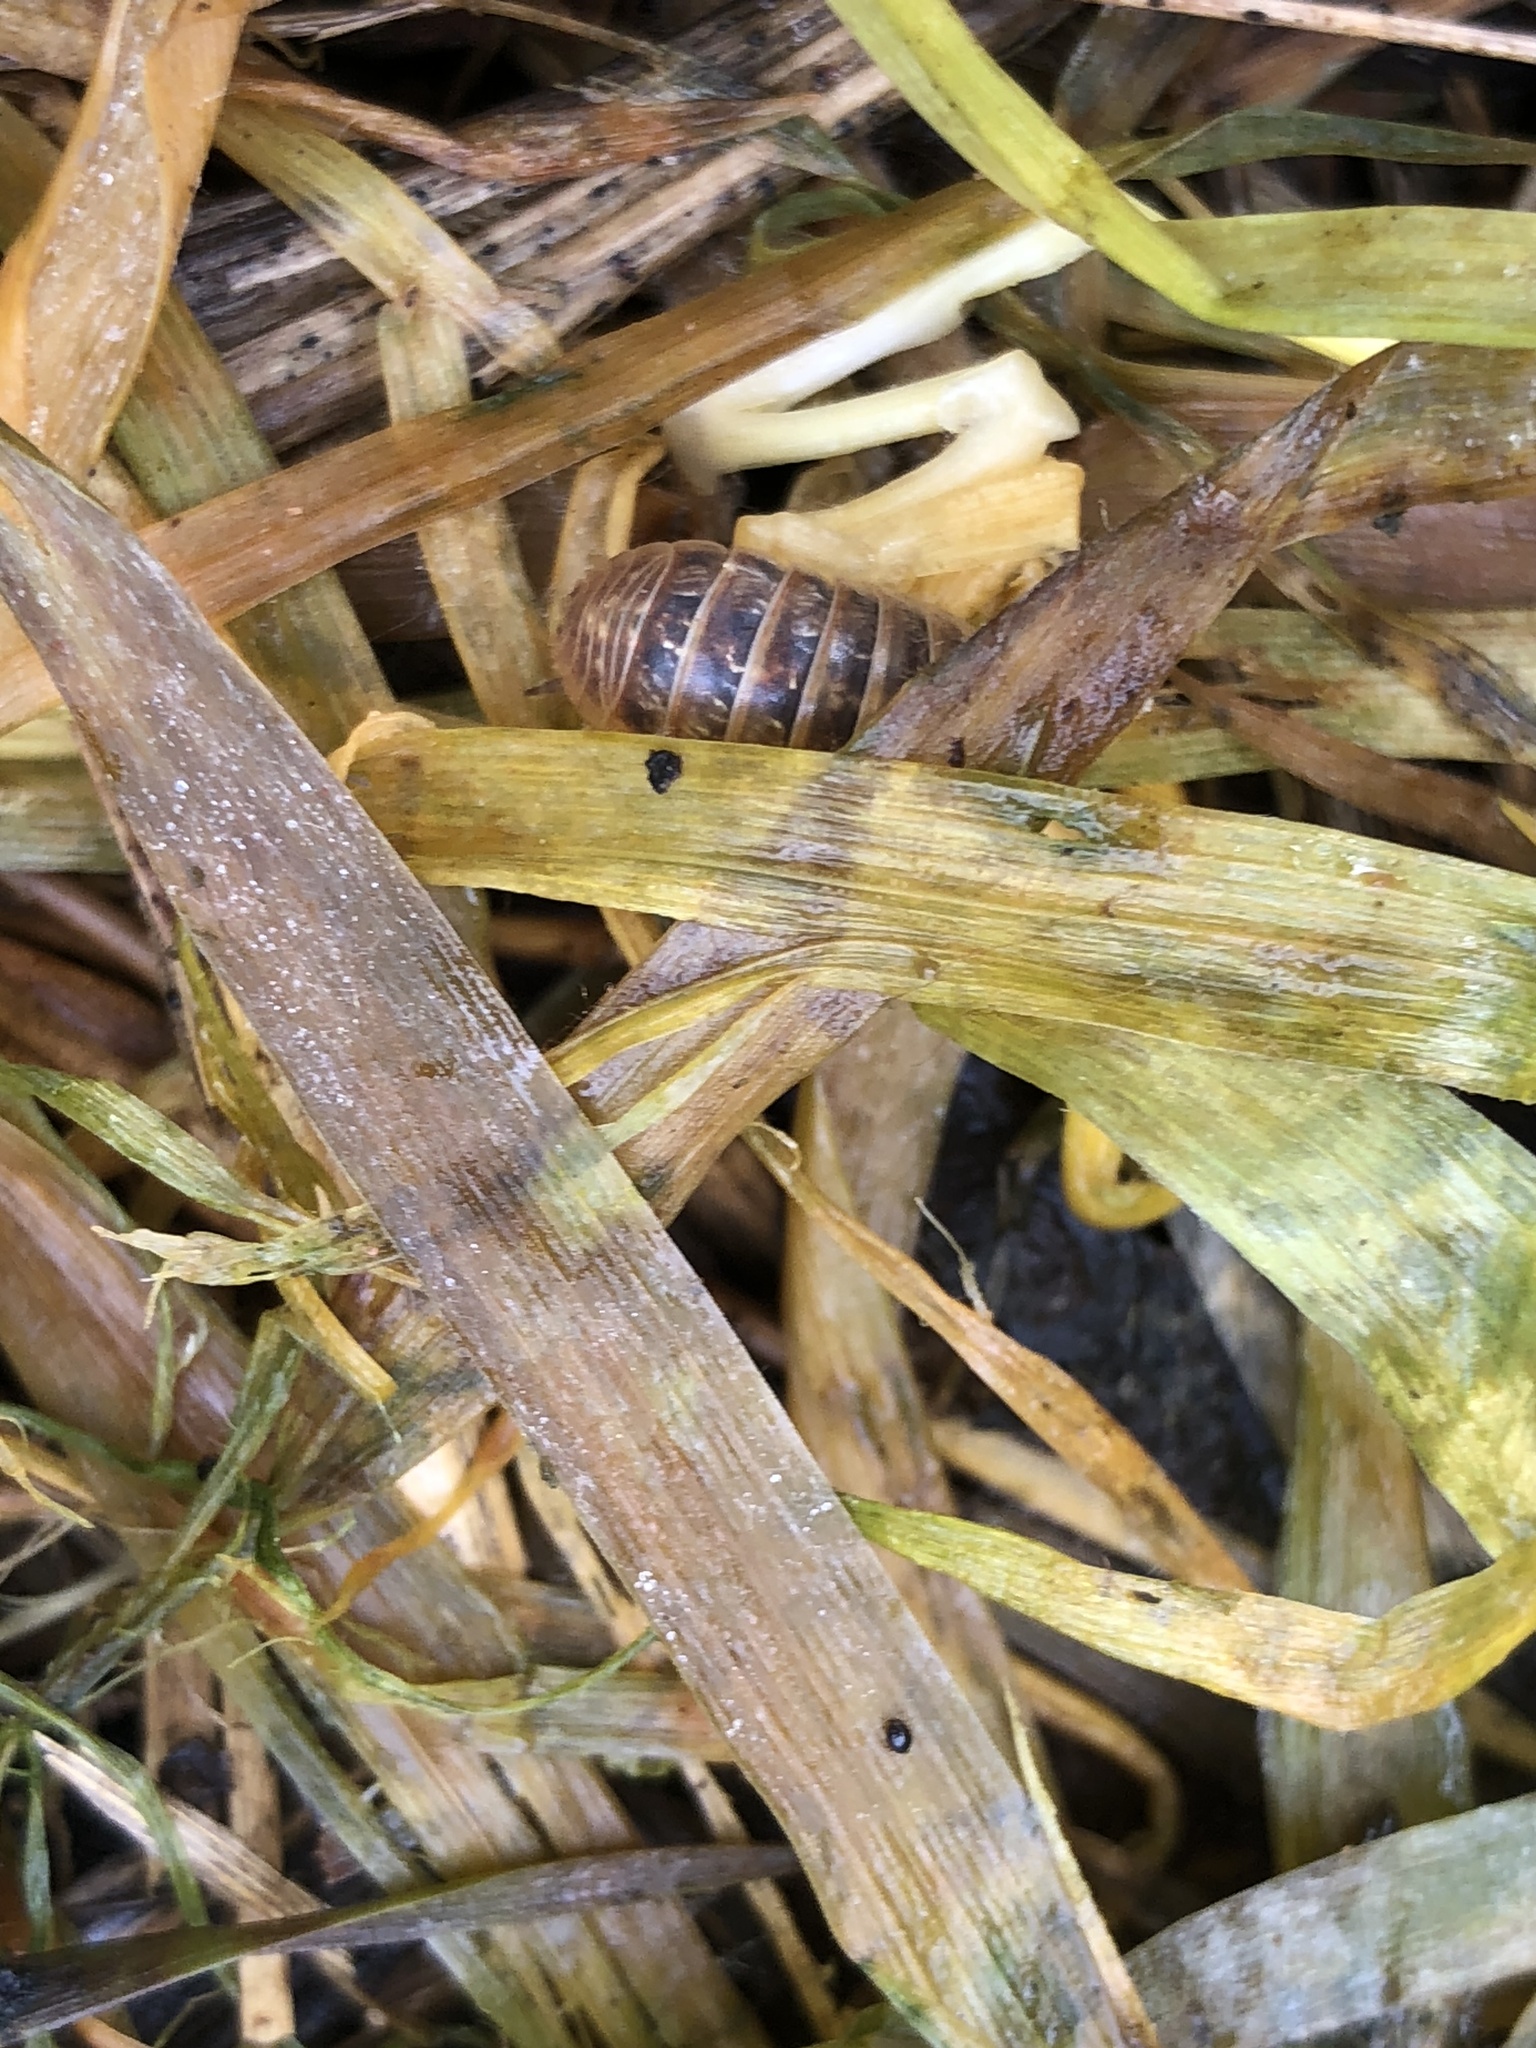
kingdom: Animalia
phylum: Arthropoda
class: Malacostraca
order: Isopoda
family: Armadillidiidae
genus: Armadillidium
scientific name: Armadillidium
